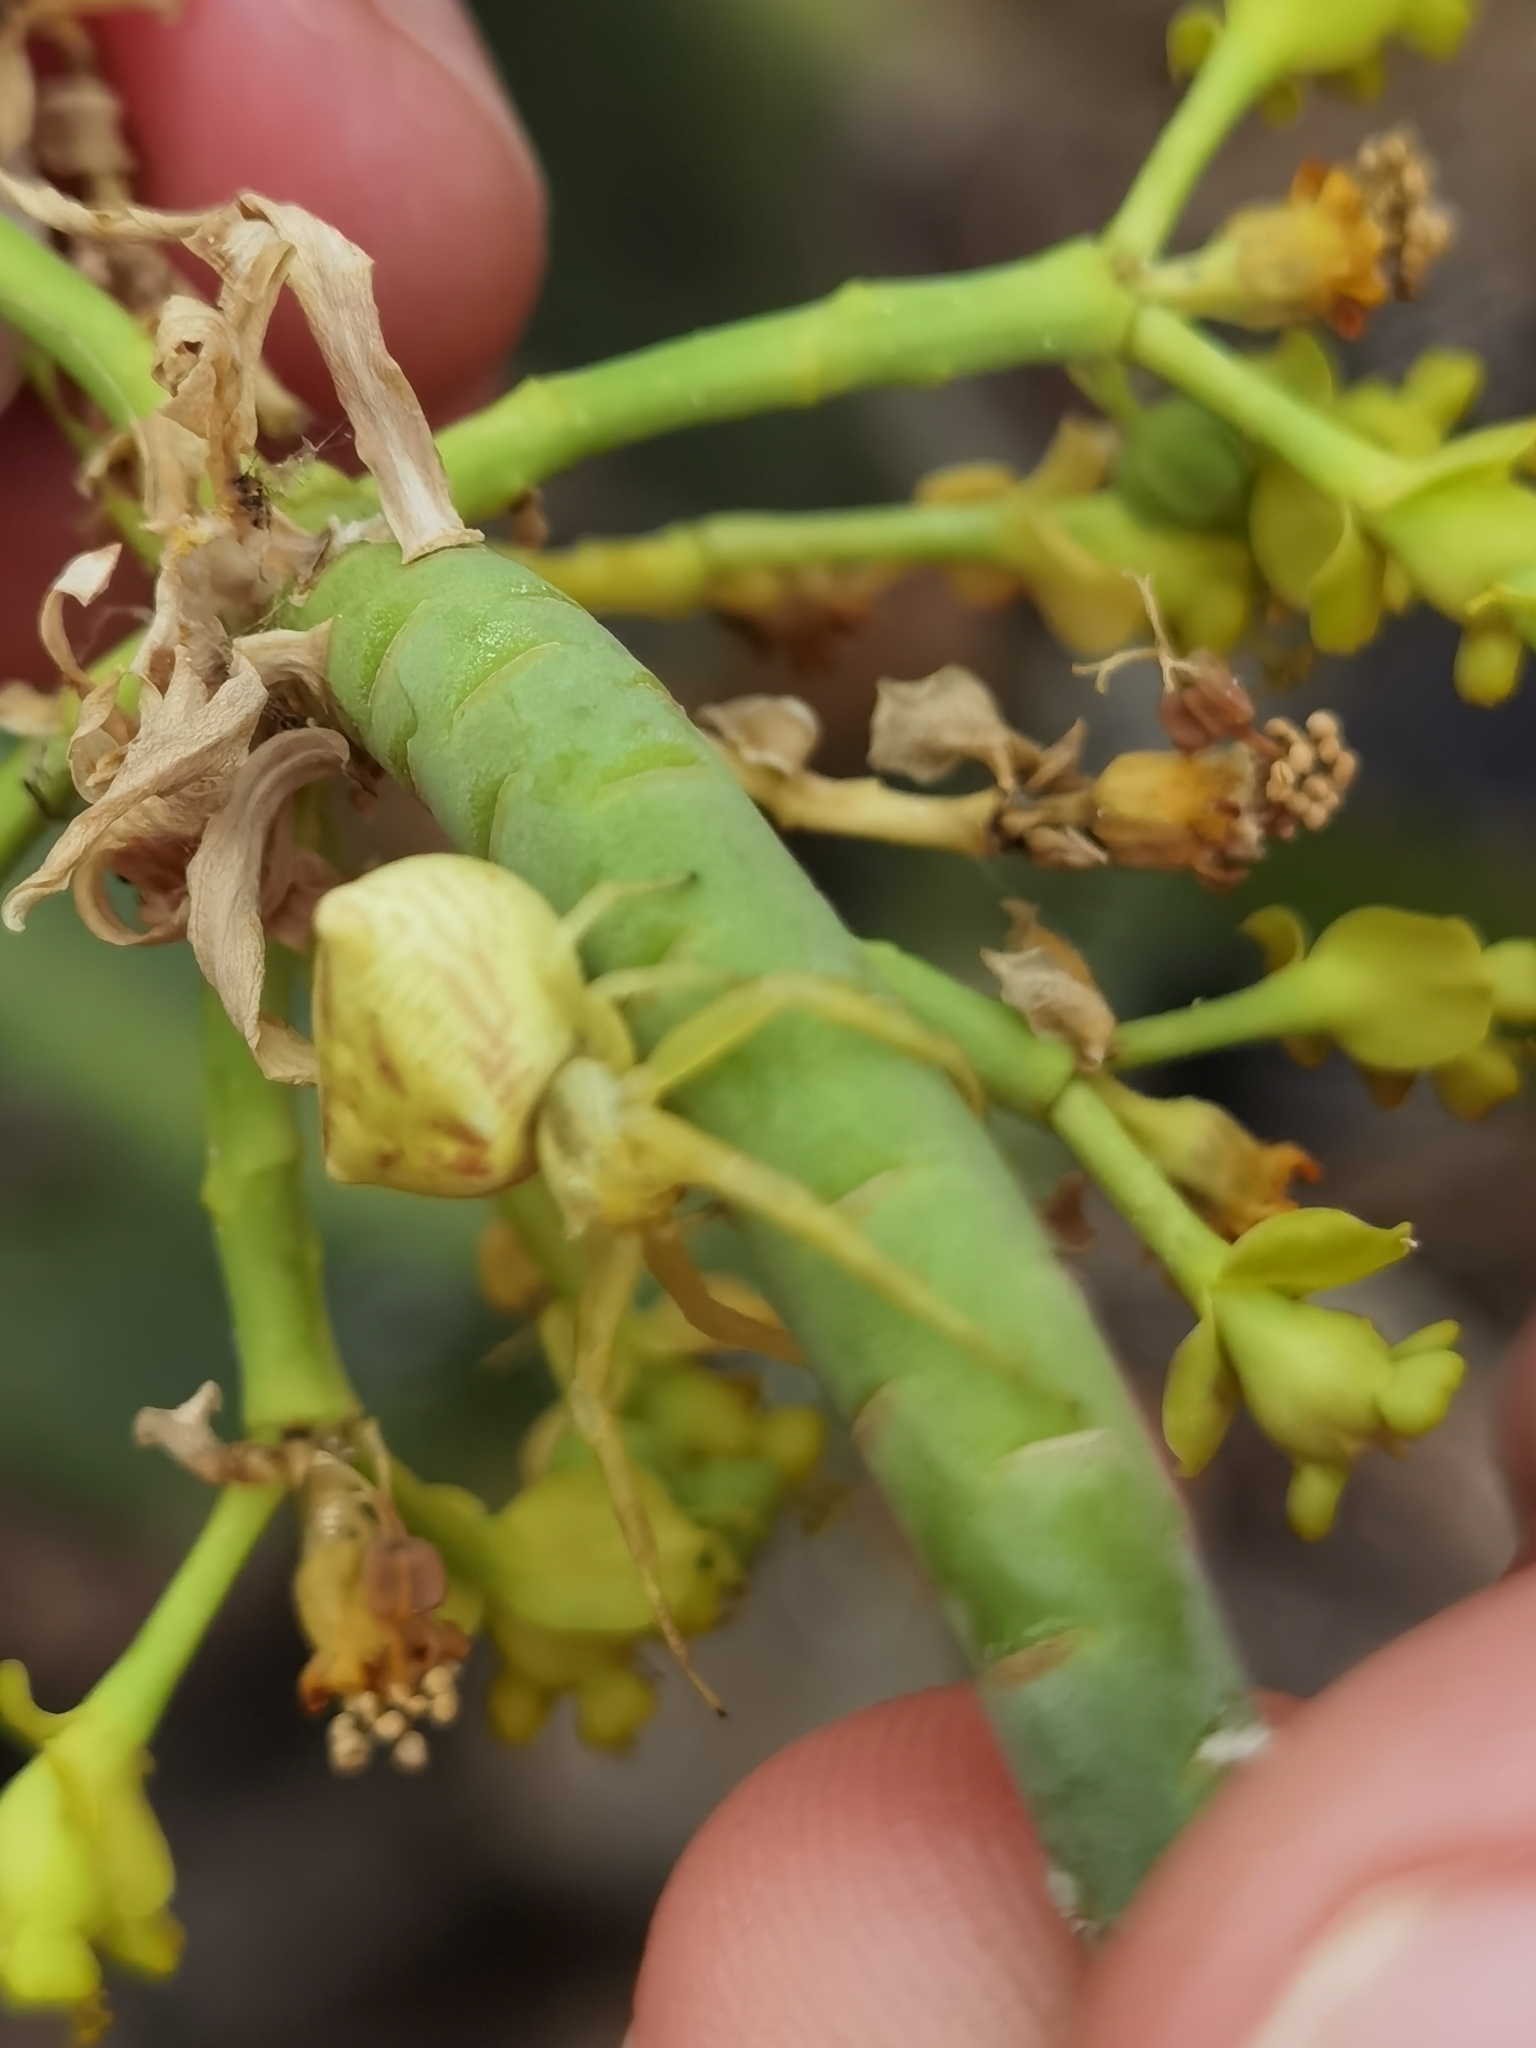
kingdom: Animalia
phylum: Arthropoda
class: Arachnida
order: Araneae
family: Thomisidae
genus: Thomisus
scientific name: Thomisus onustus
